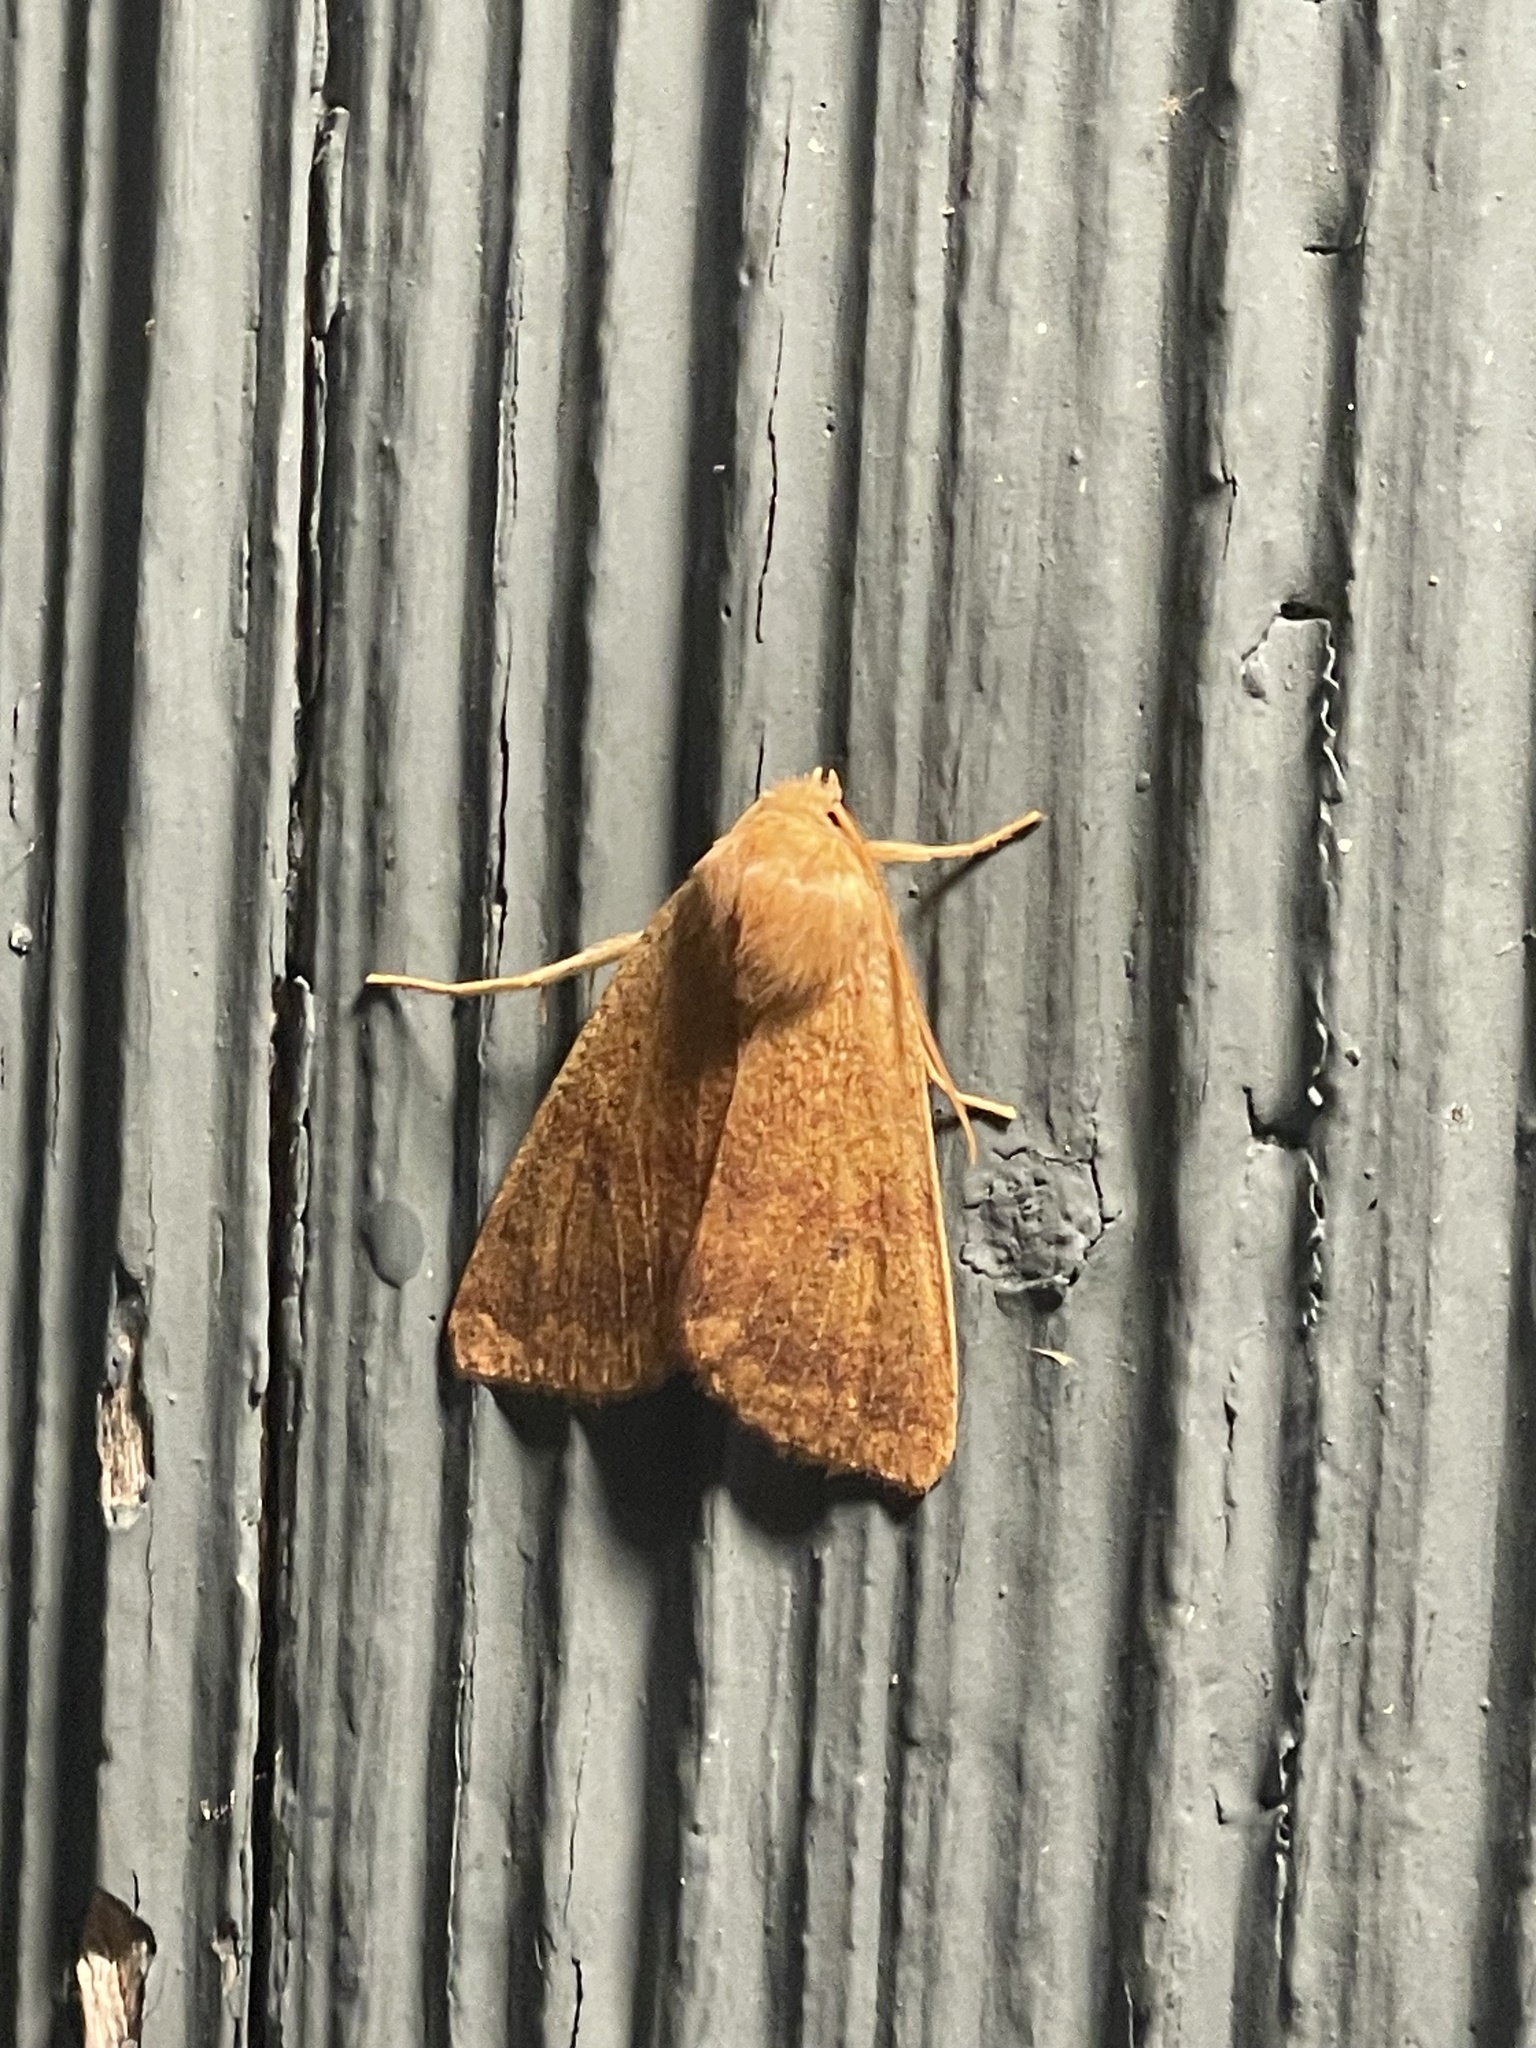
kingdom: Animalia
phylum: Arthropoda
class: Insecta
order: Lepidoptera
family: Noctuidae
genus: Agrochola
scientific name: Agrochola bicolorago
